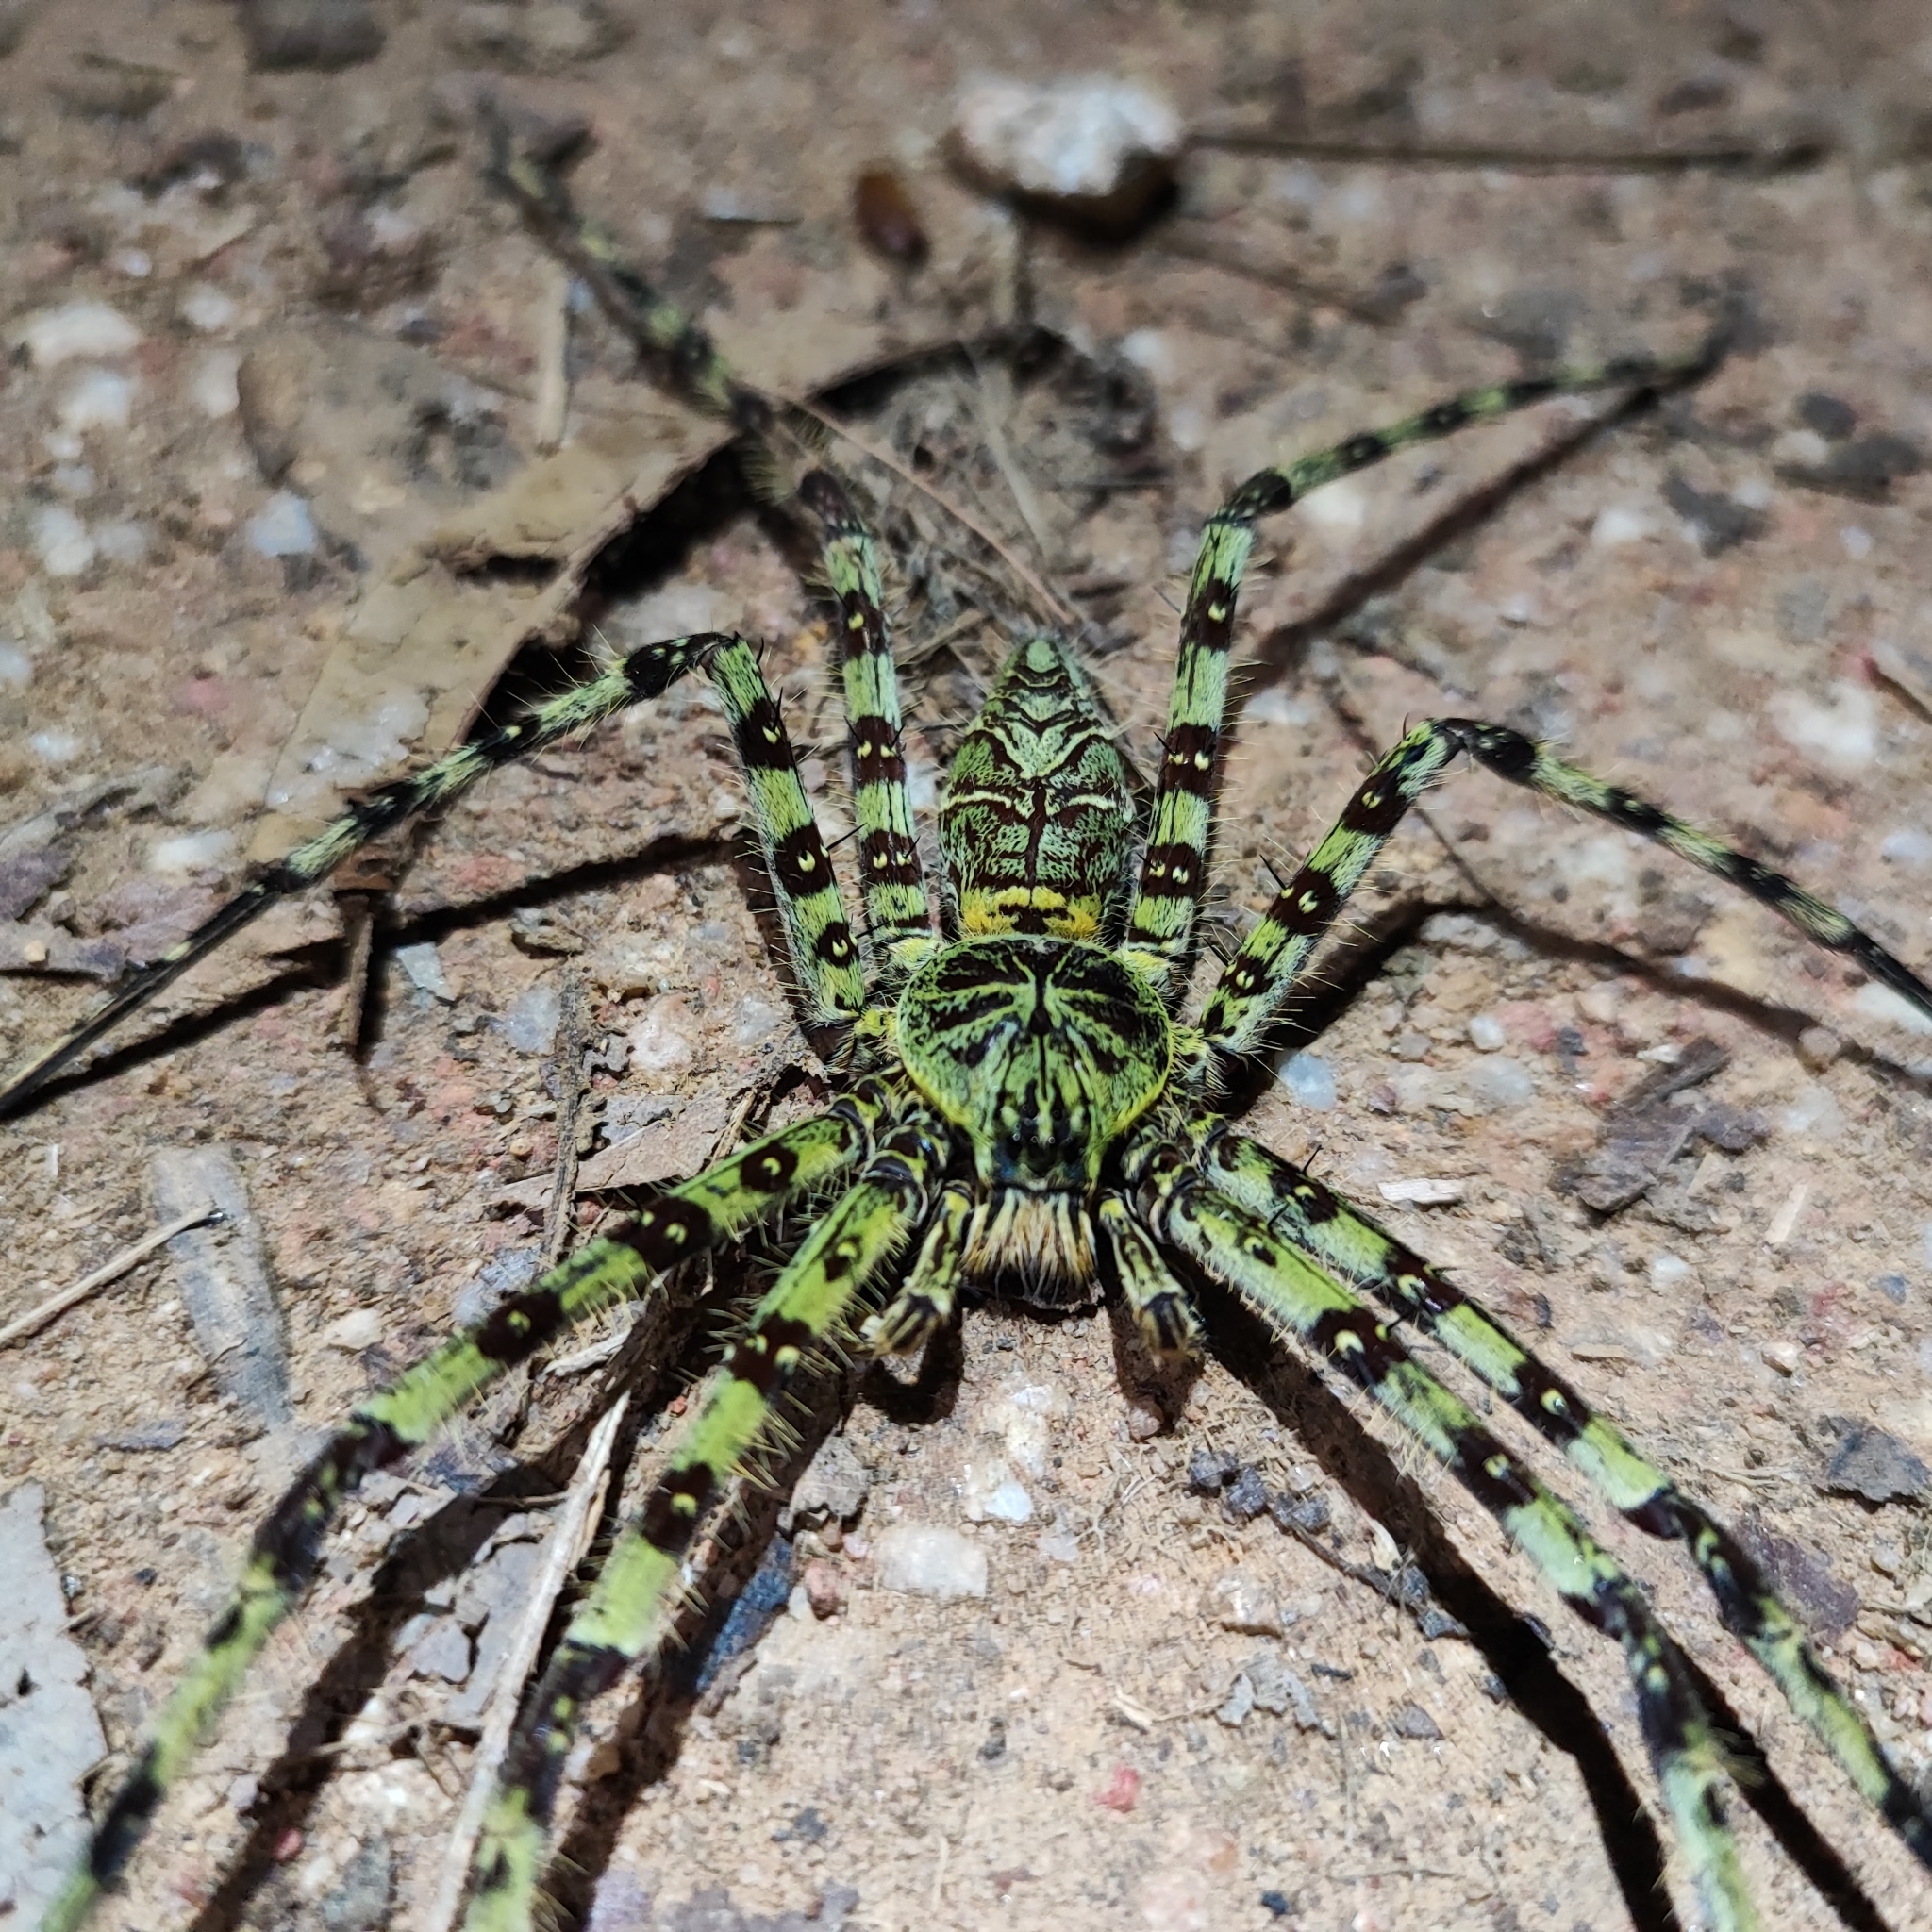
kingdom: Animalia
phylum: Arthropoda
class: Arachnida
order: Araneae
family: Sparassidae
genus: Heteropoda
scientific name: Heteropoda boiei
